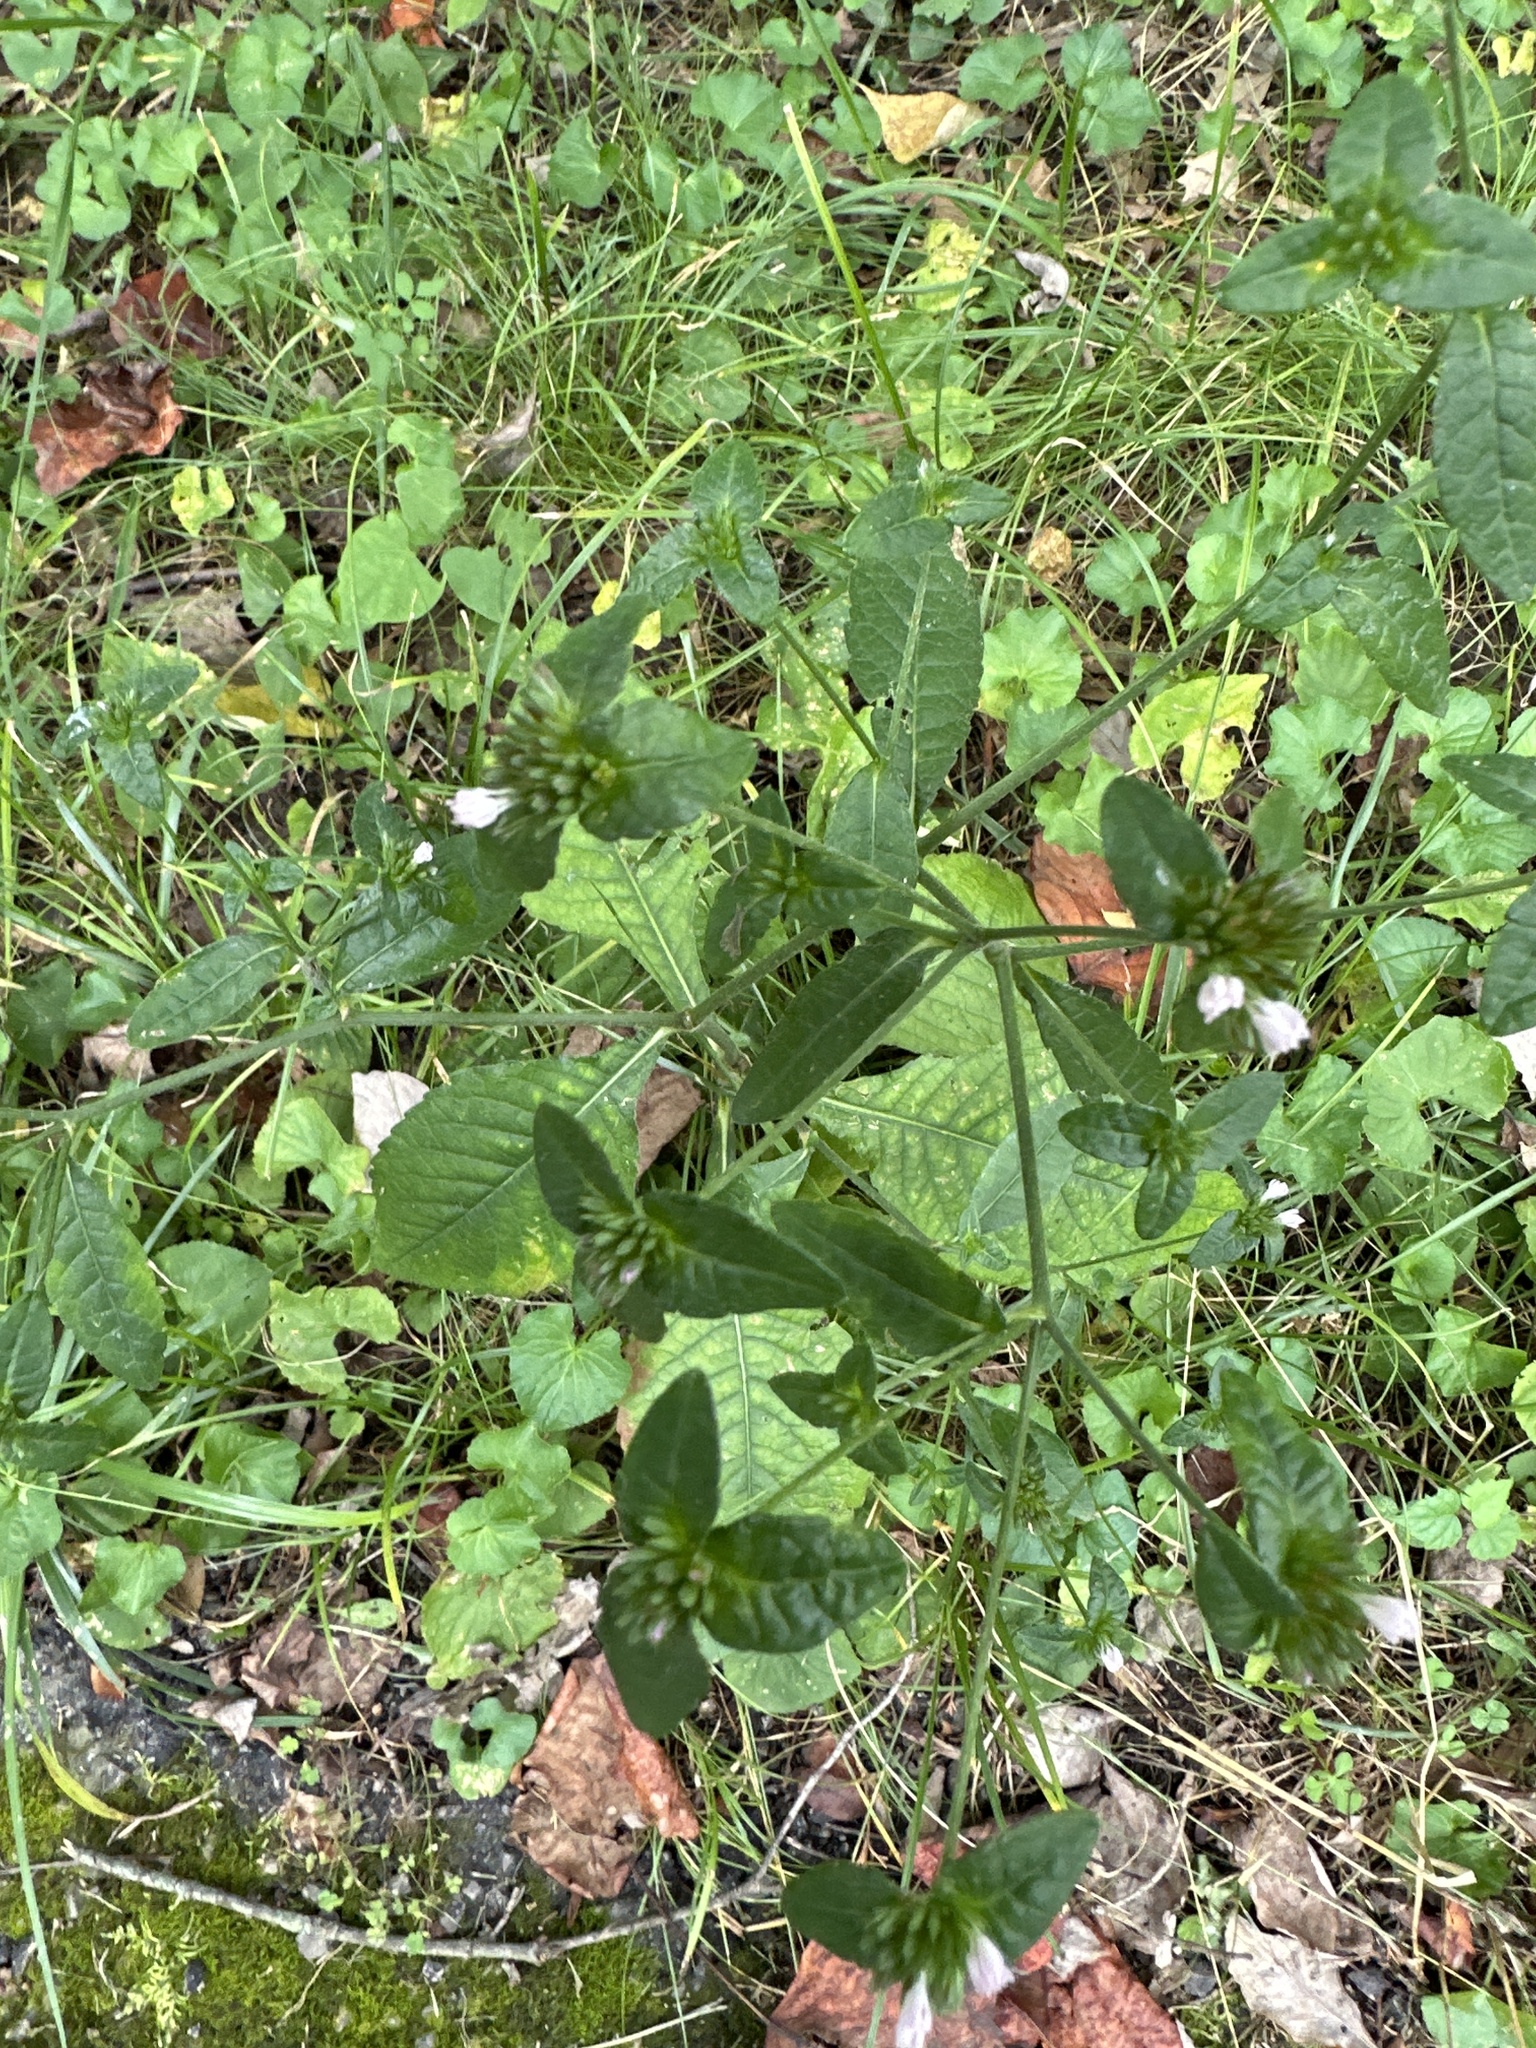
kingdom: Plantae
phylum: Tracheophyta
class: Magnoliopsida
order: Asterales
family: Asteraceae
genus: Elephantopus
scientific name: Elephantopus carolinianus
